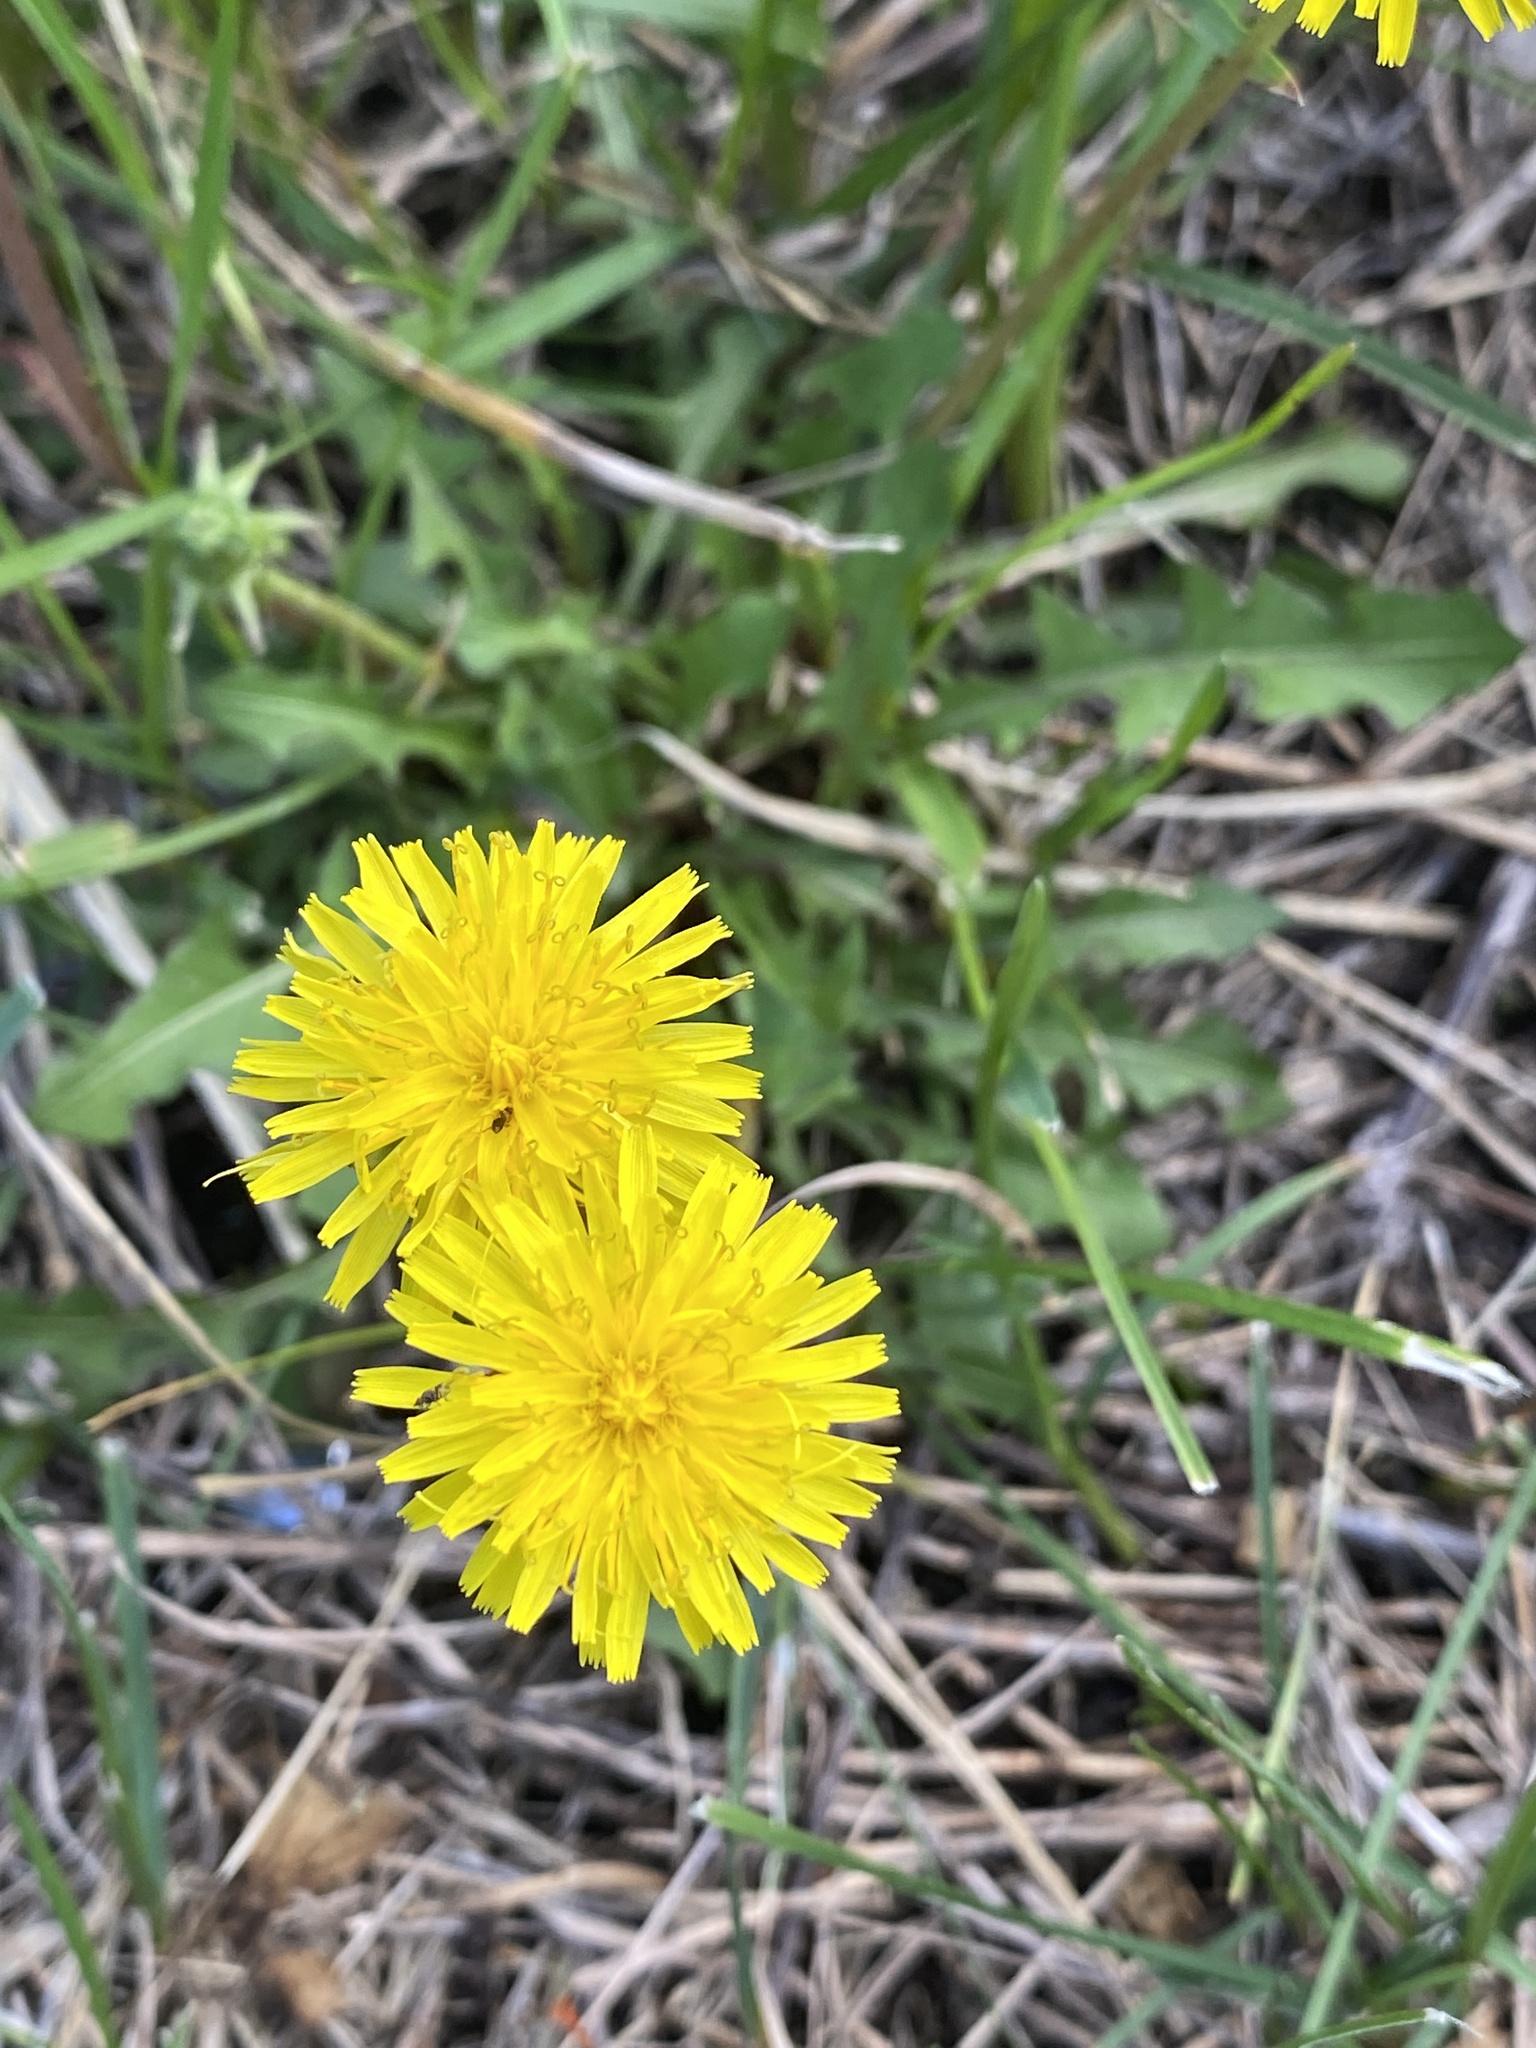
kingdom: Plantae
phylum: Tracheophyta
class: Magnoliopsida
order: Asterales
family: Asteraceae
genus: Taraxacum
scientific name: Taraxacum officinale
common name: Common dandelion
